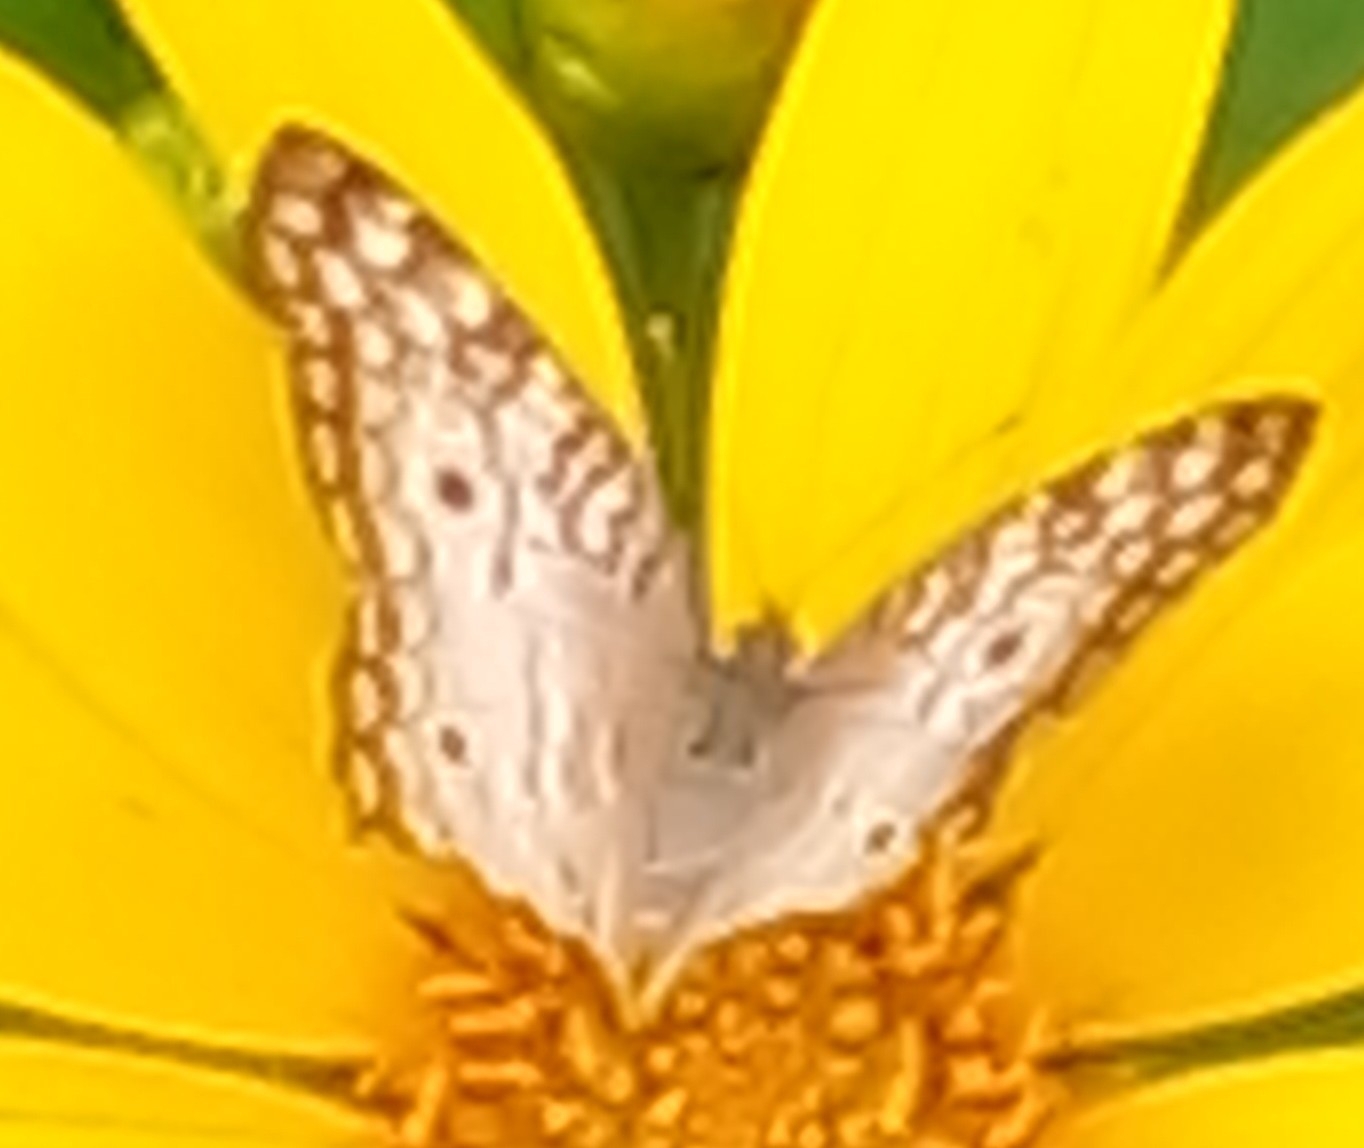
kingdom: Animalia
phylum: Arthropoda
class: Insecta
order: Lepidoptera
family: Nymphalidae
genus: Anartia
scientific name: Anartia jatrophae
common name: White peacock
